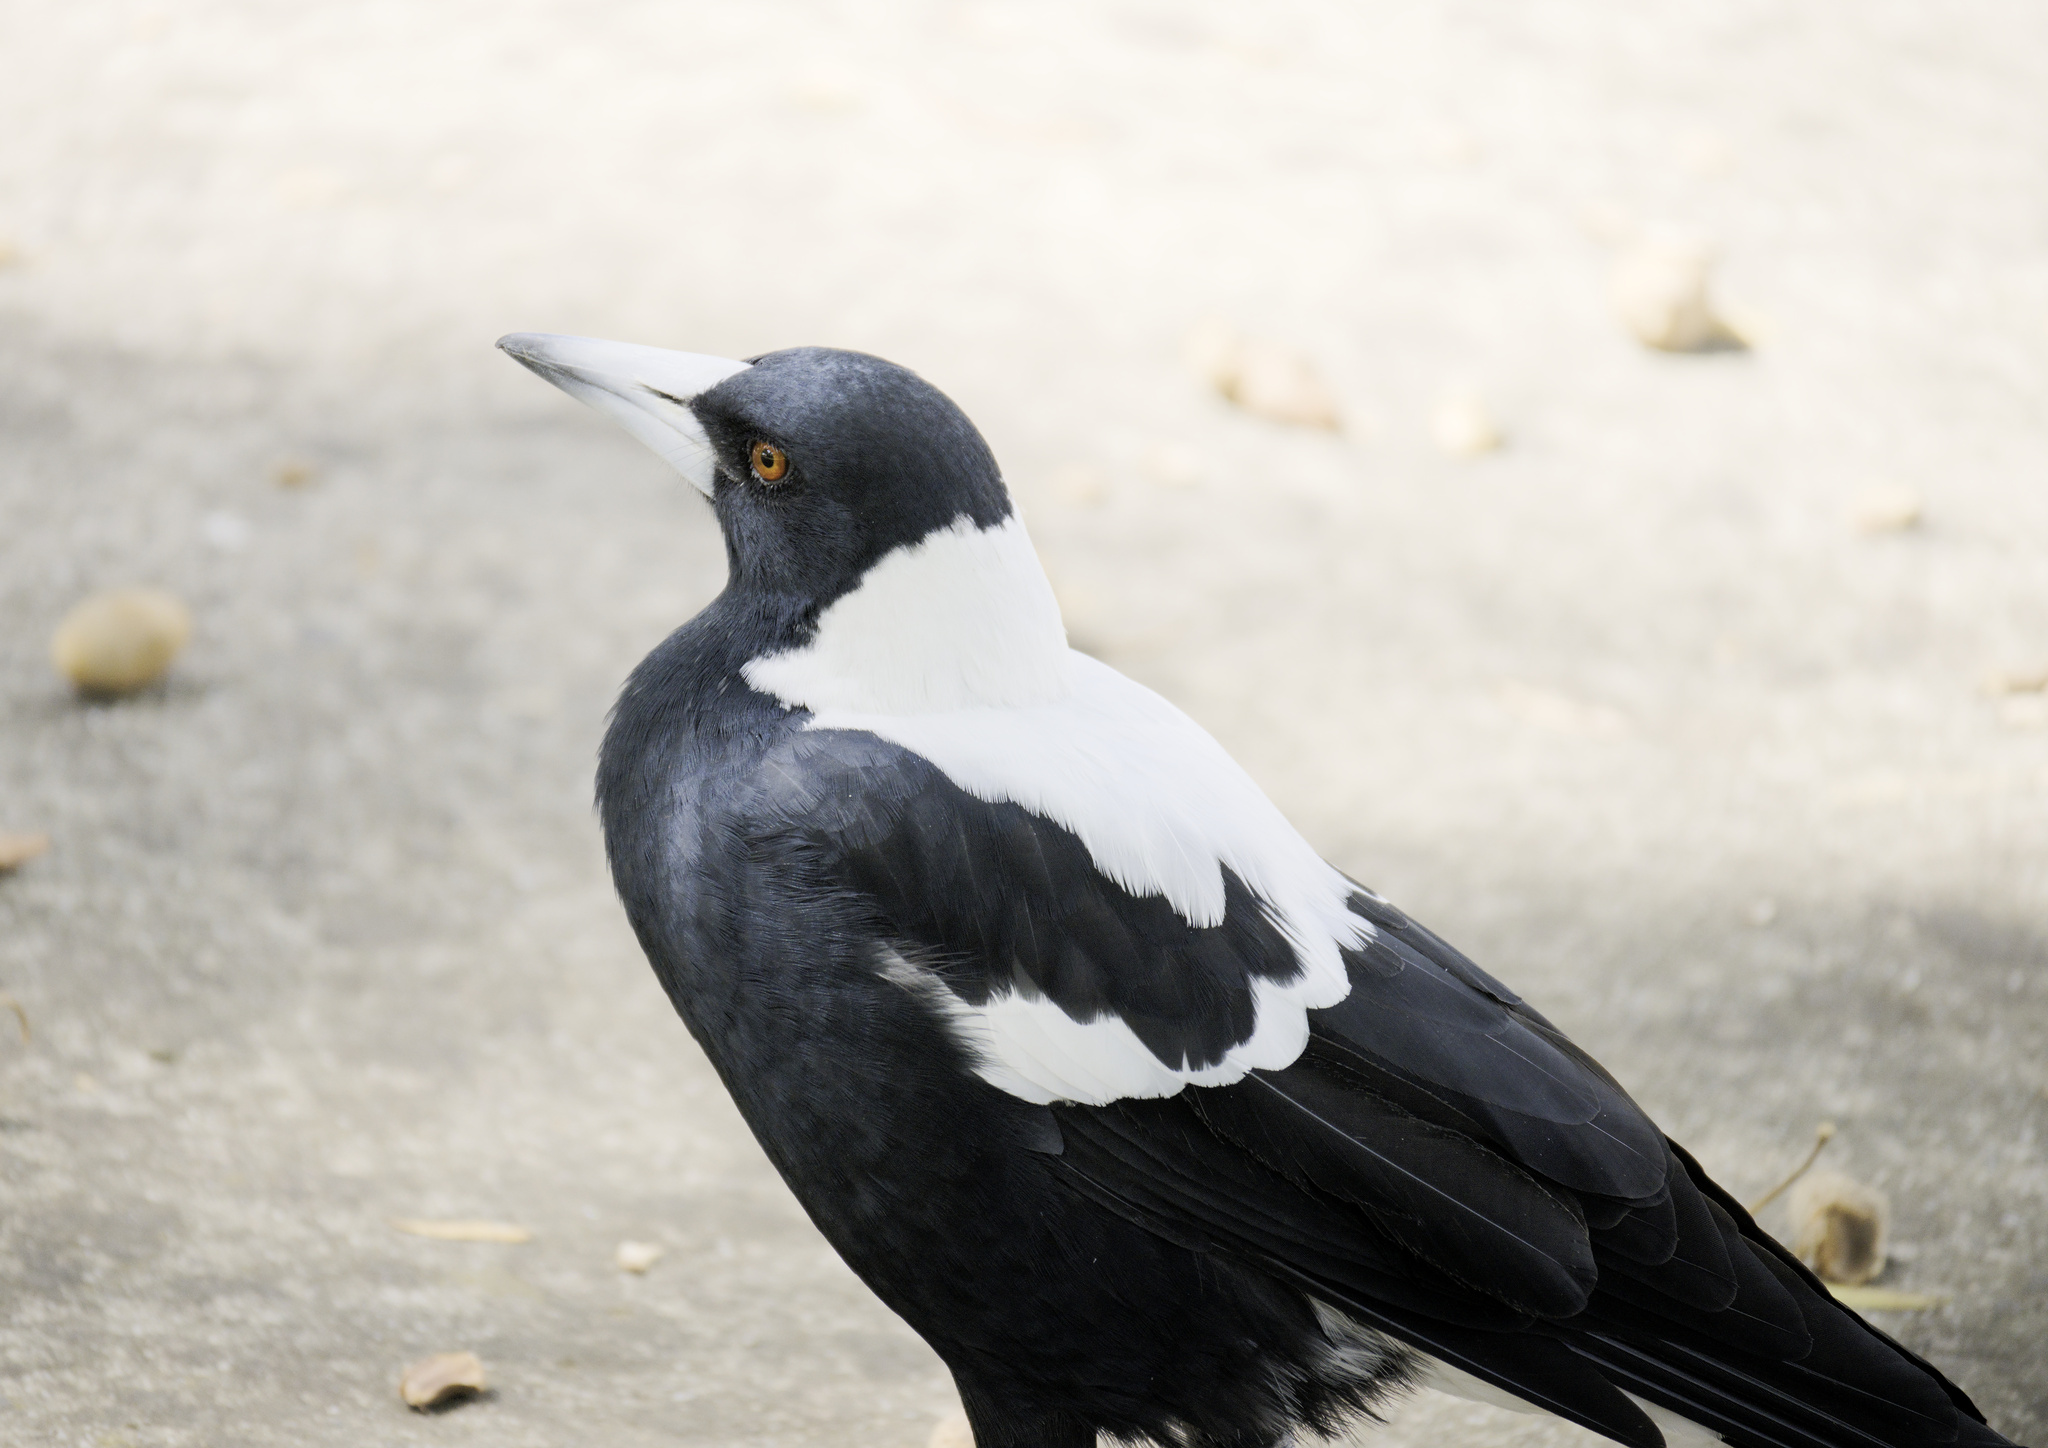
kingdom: Animalia
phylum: Chordata
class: Aves
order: Passeriformes
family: Cracticidae
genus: Gymnorhina
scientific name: Gymnorhina tibicen
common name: Australian magpie
